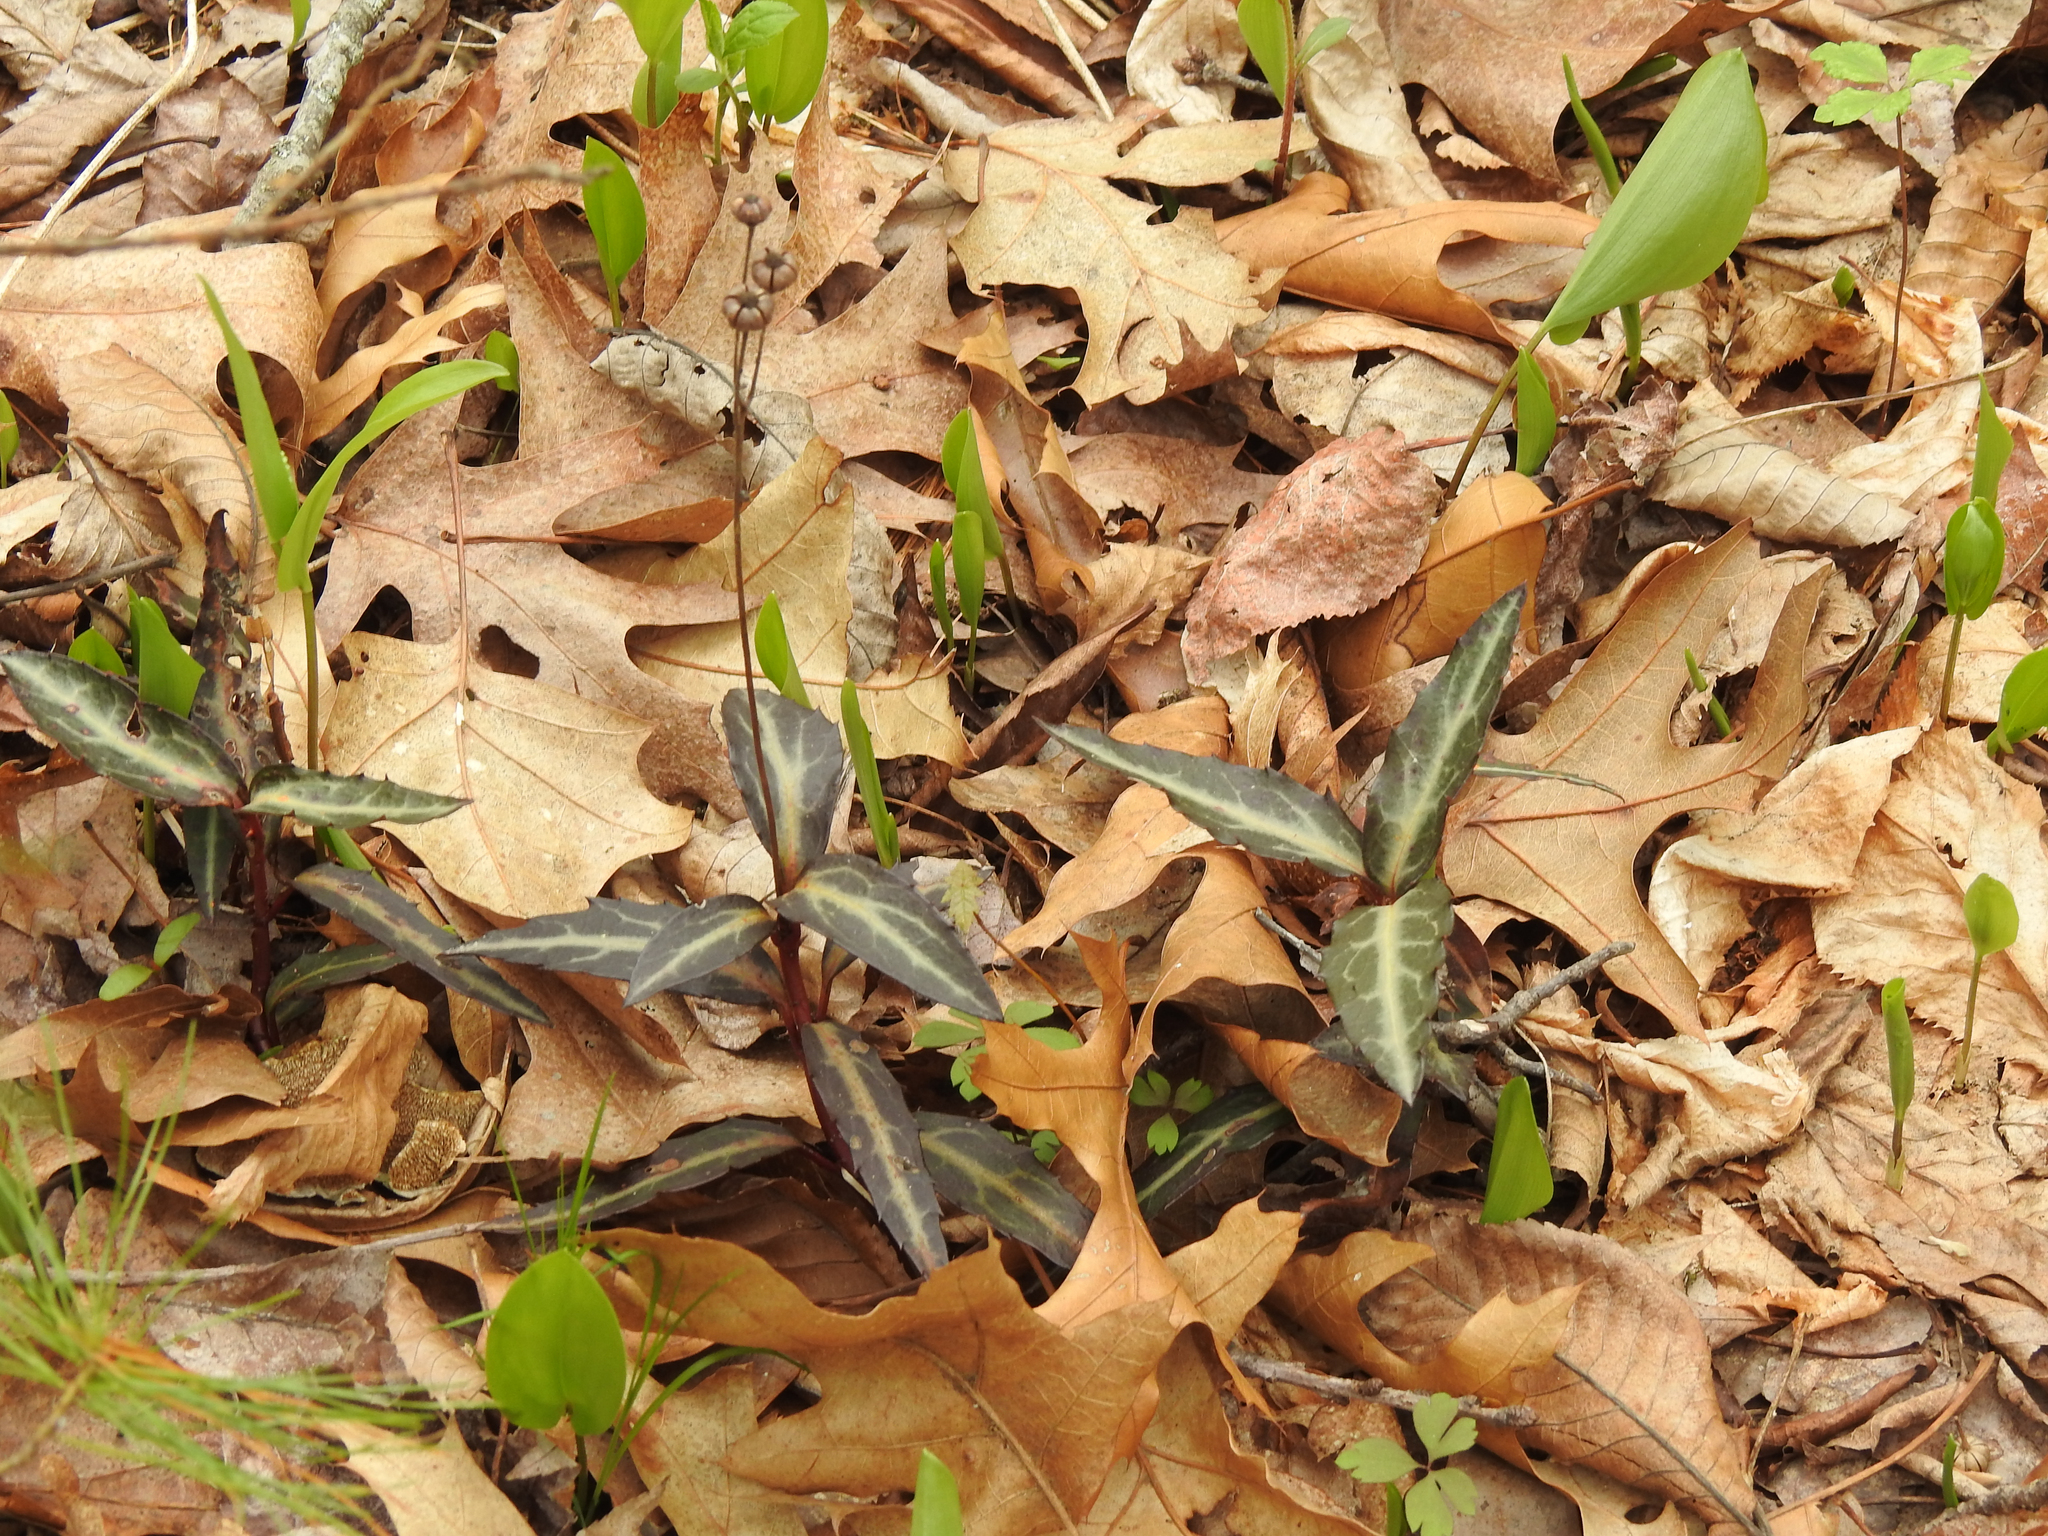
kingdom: Plantae
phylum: Tracheophyta
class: Magnoliopsida
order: Ericales
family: Ericaceae
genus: Chimaphila
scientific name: Chimaphila maculata
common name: Spotted pipsissewa
